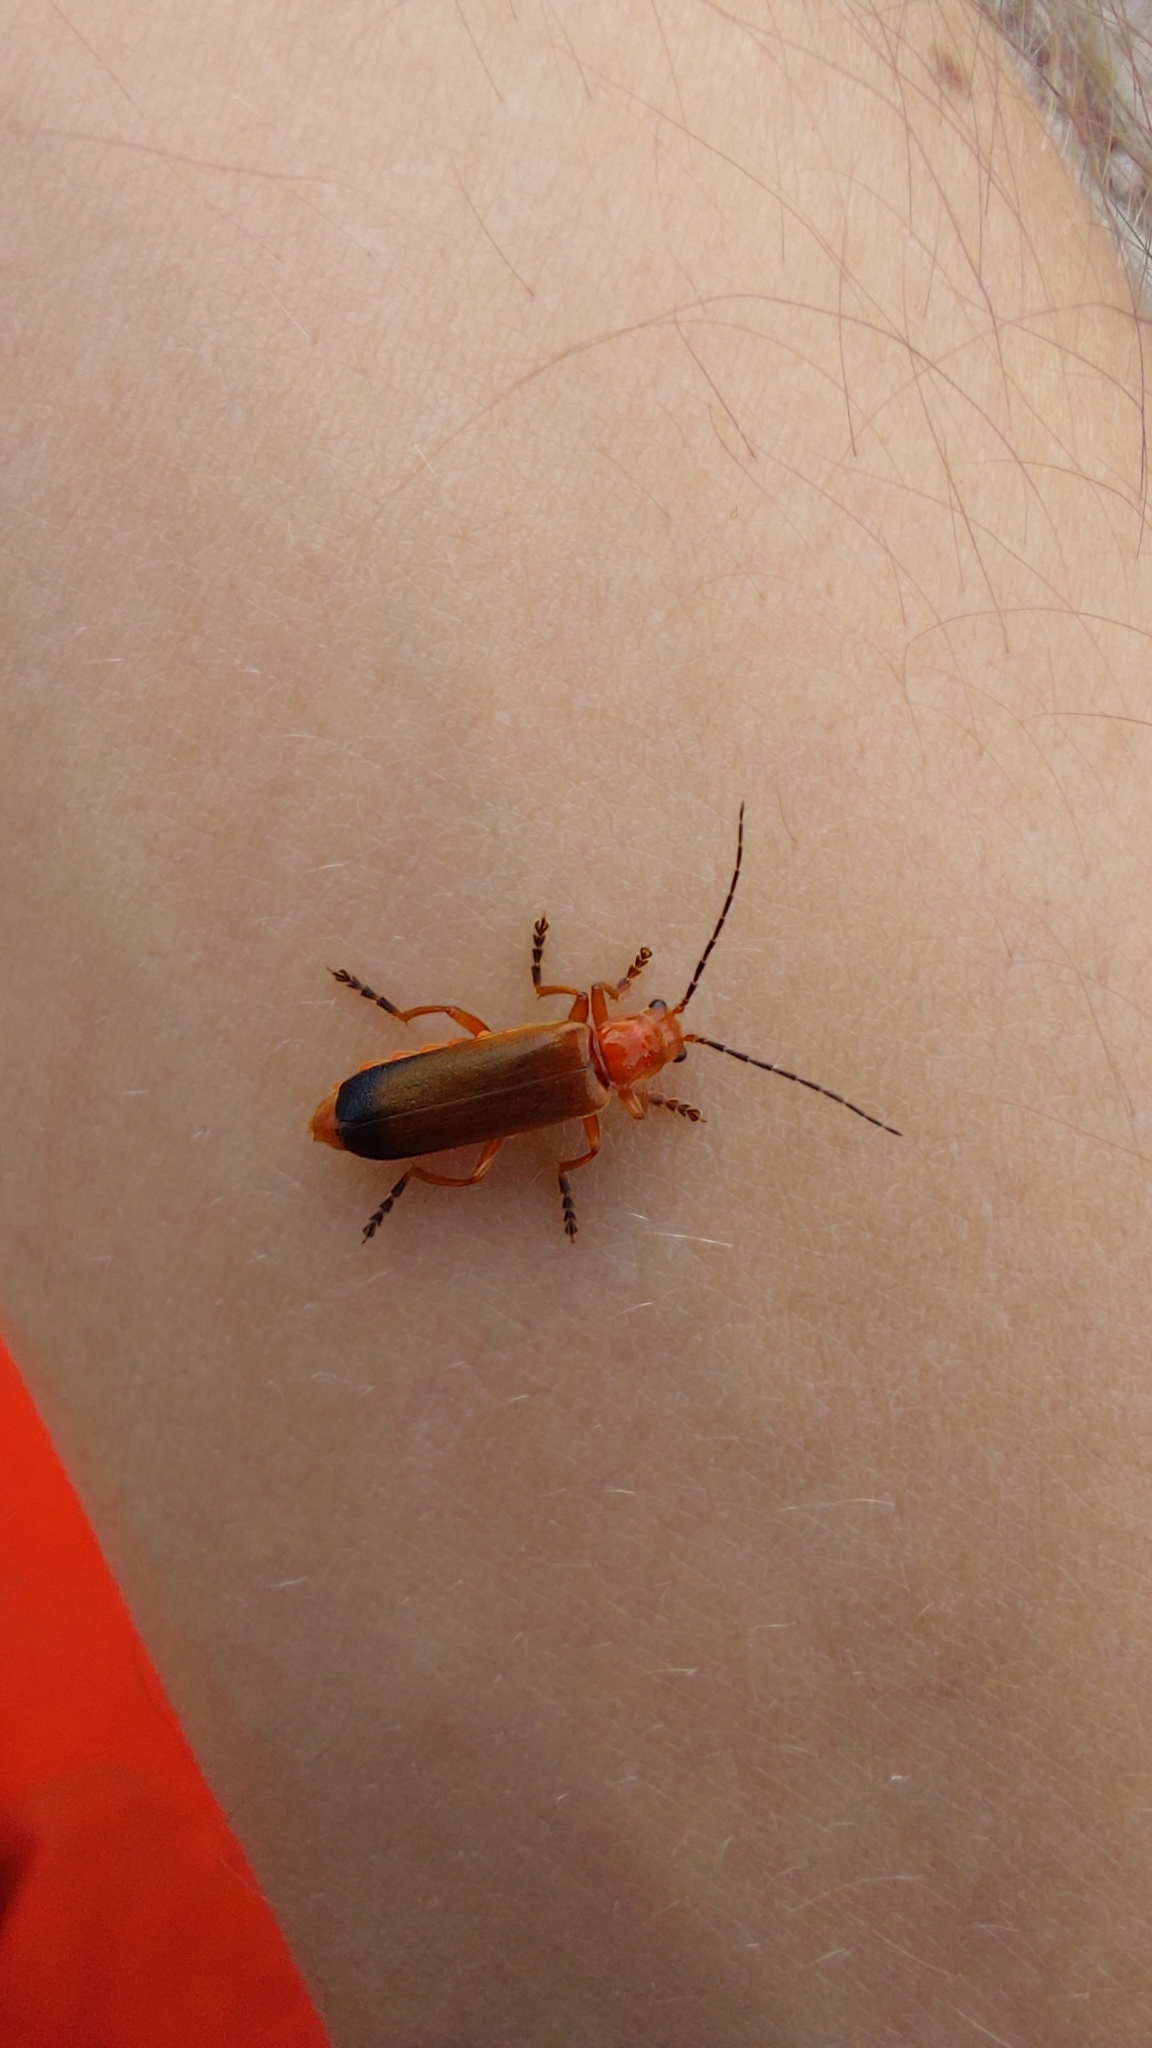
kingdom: Animalia
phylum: Arthropoda
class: Insecta
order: Coleoptera
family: Cantharidae
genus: Ancistronycha
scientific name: Ancistronycha erichsonii
